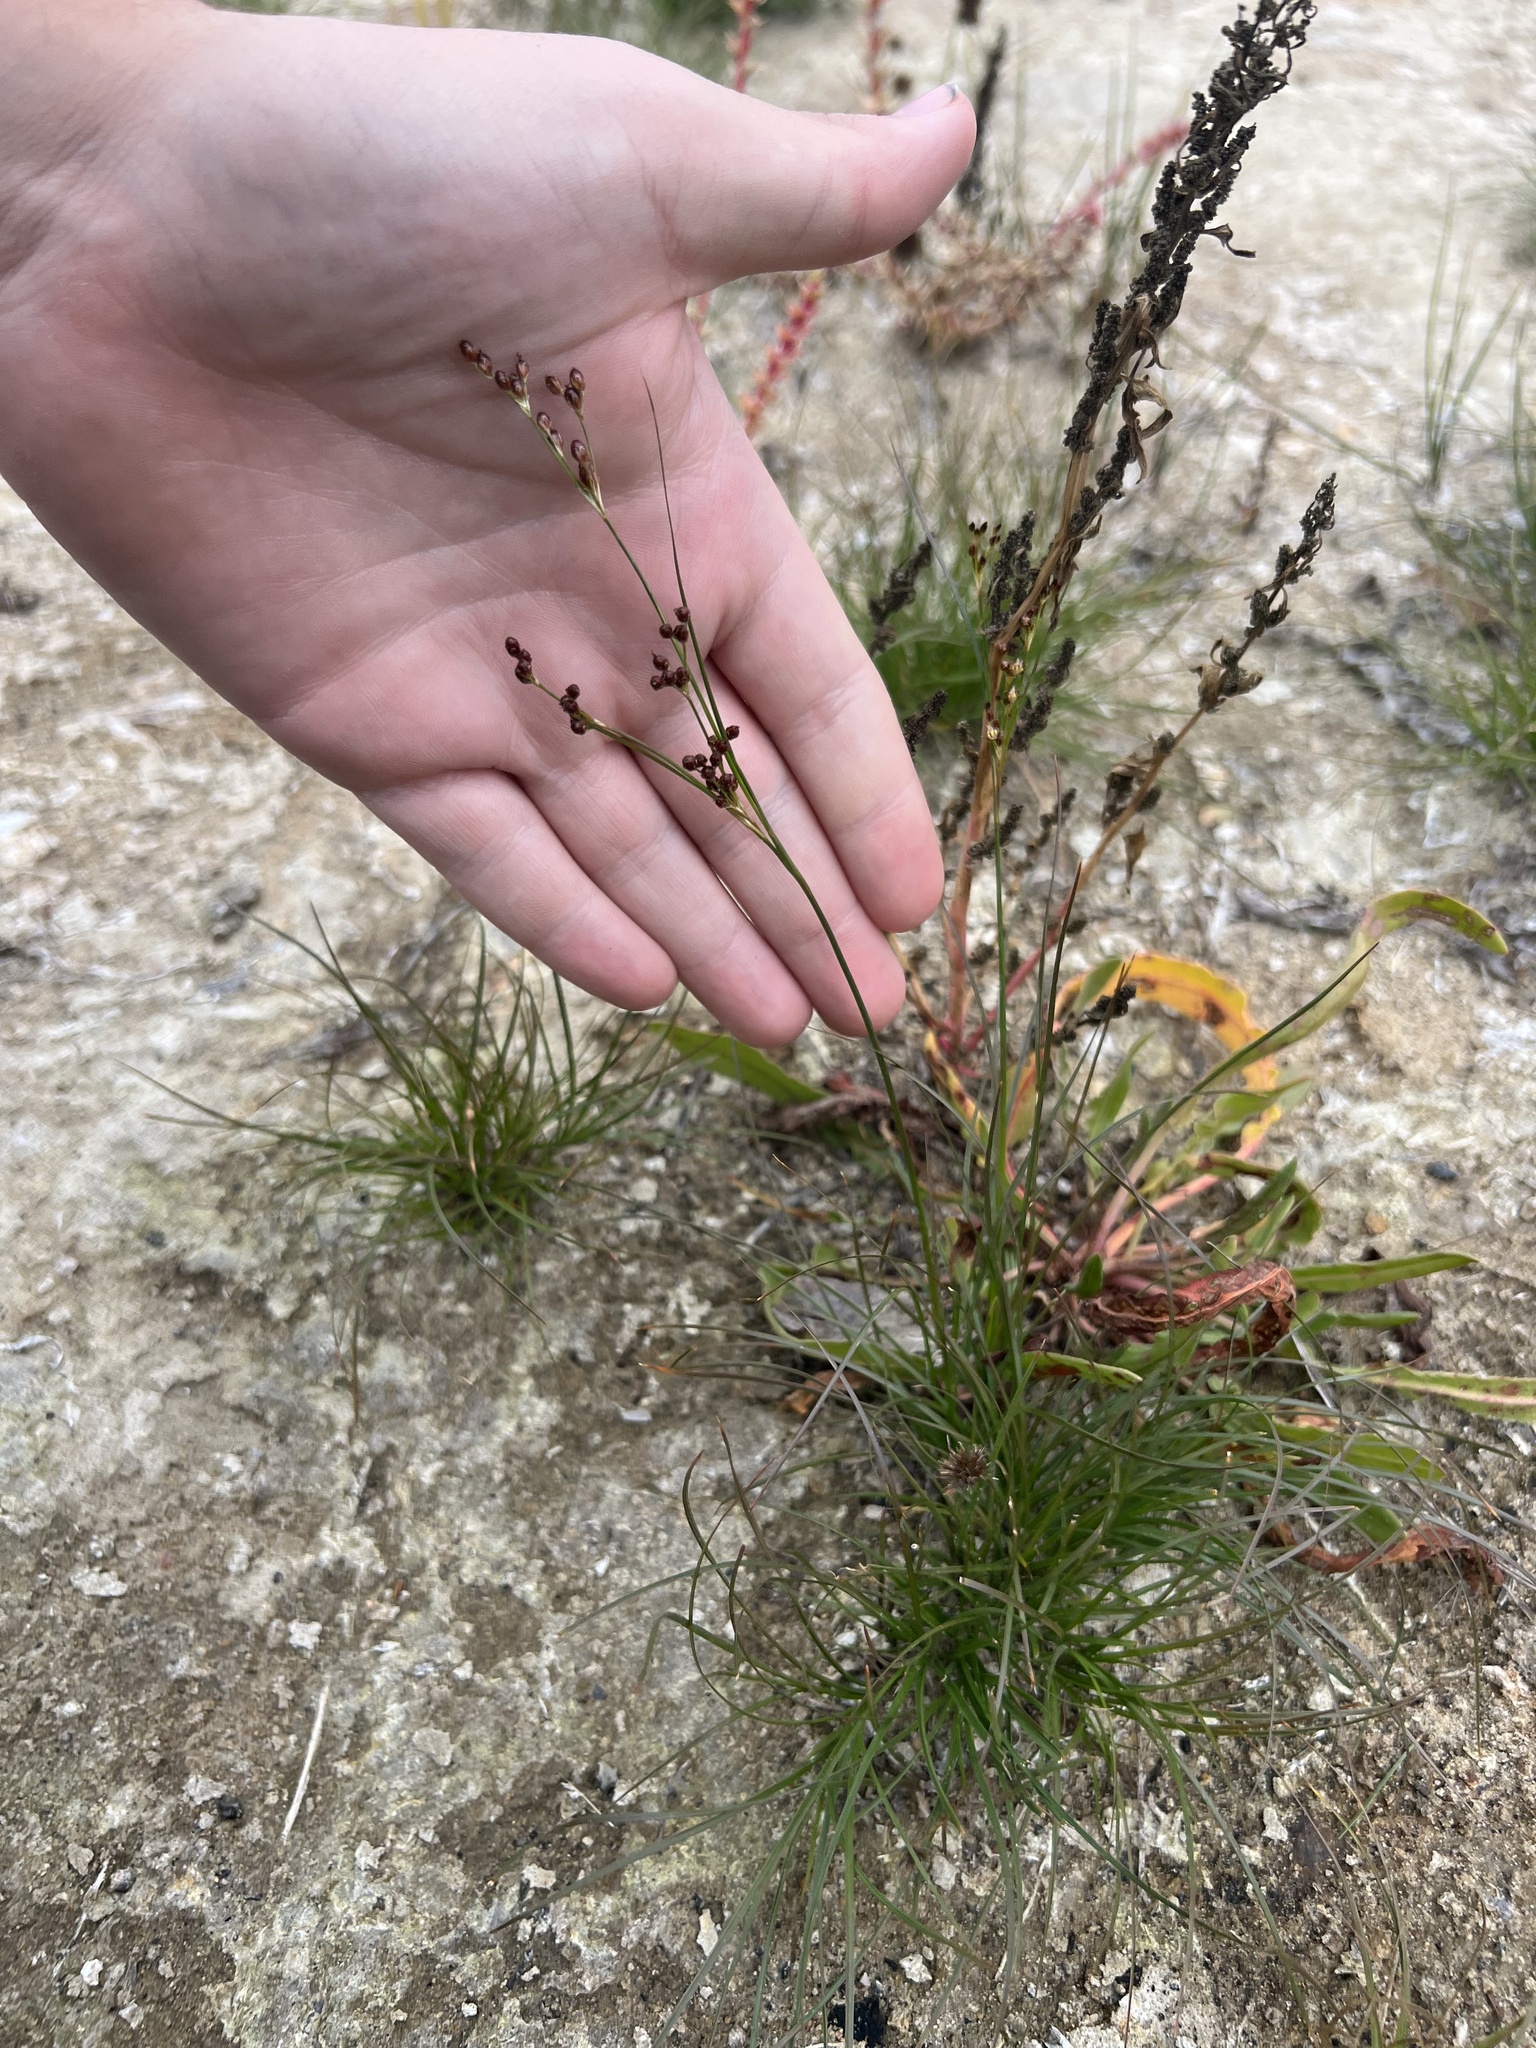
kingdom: Plantae
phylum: Tracheophyta
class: Liliopsida
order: Poales
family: Juncaceae
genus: Juncus
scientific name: Juncus compressus
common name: Round-fruited rush
